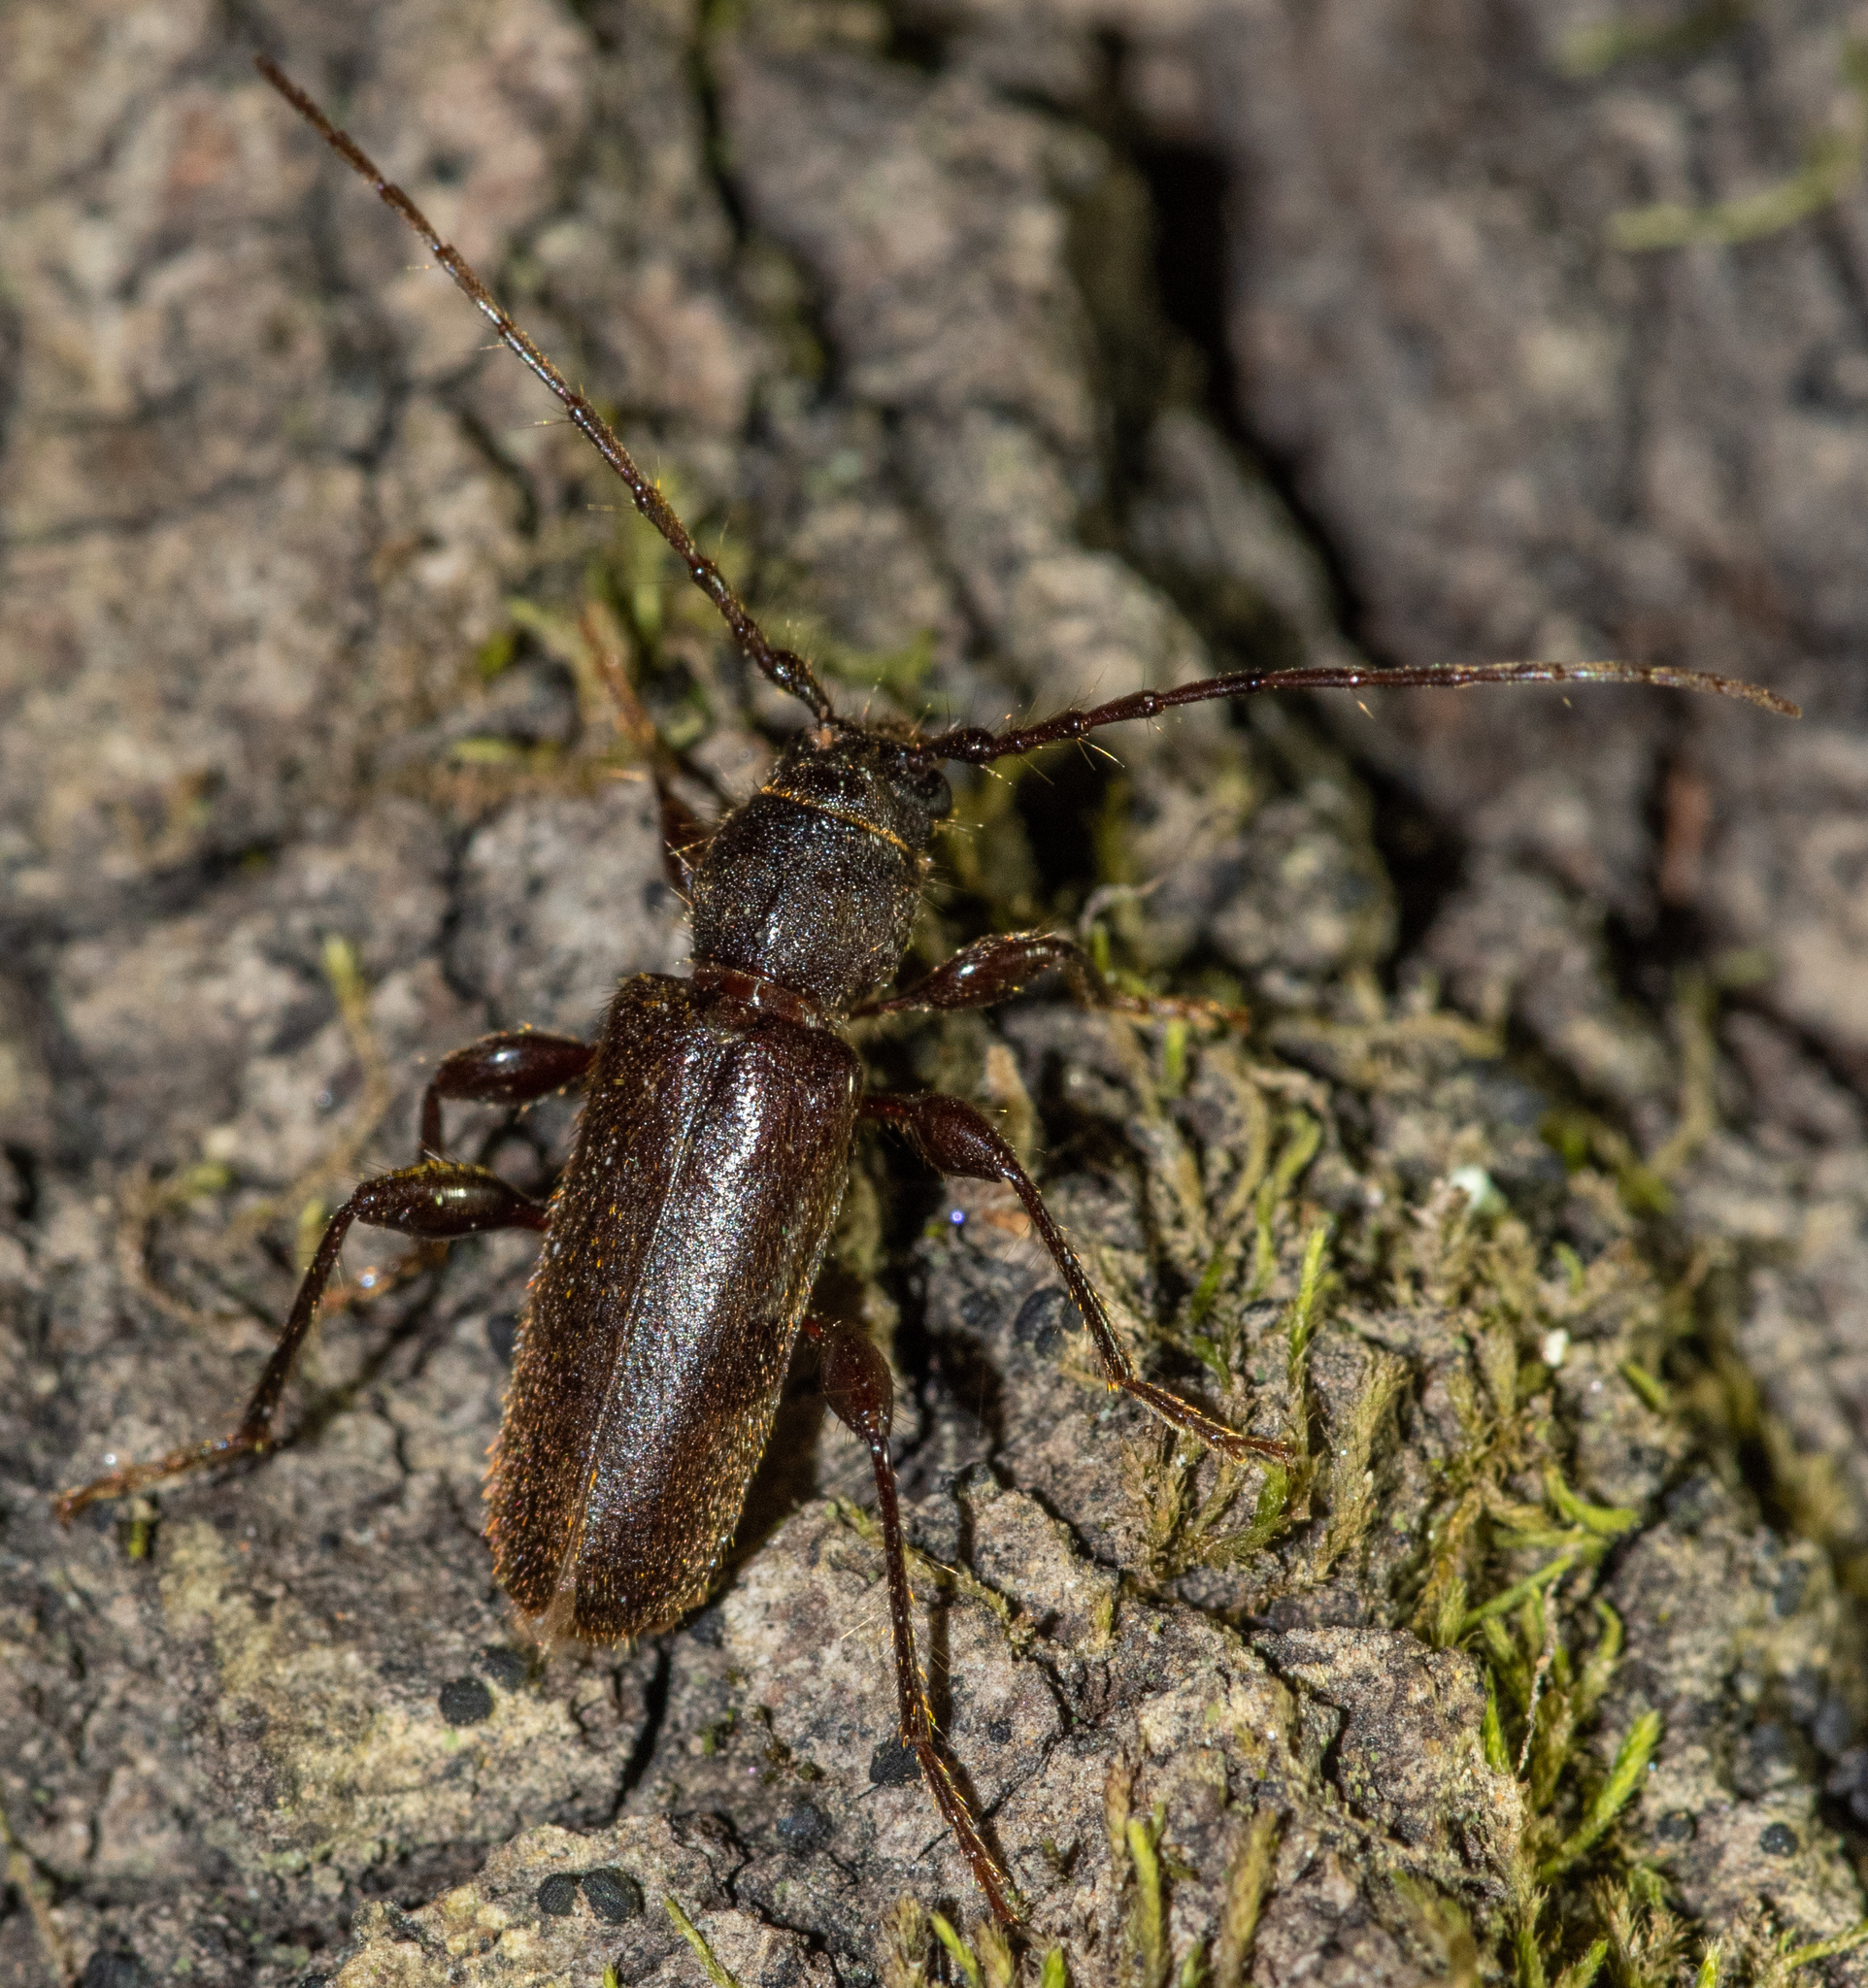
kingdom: Animalia
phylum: Arthropoda
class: Insecta
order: Coleoptera
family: Cerambycidae
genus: Phymatodes
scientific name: Phymatodes grandis
